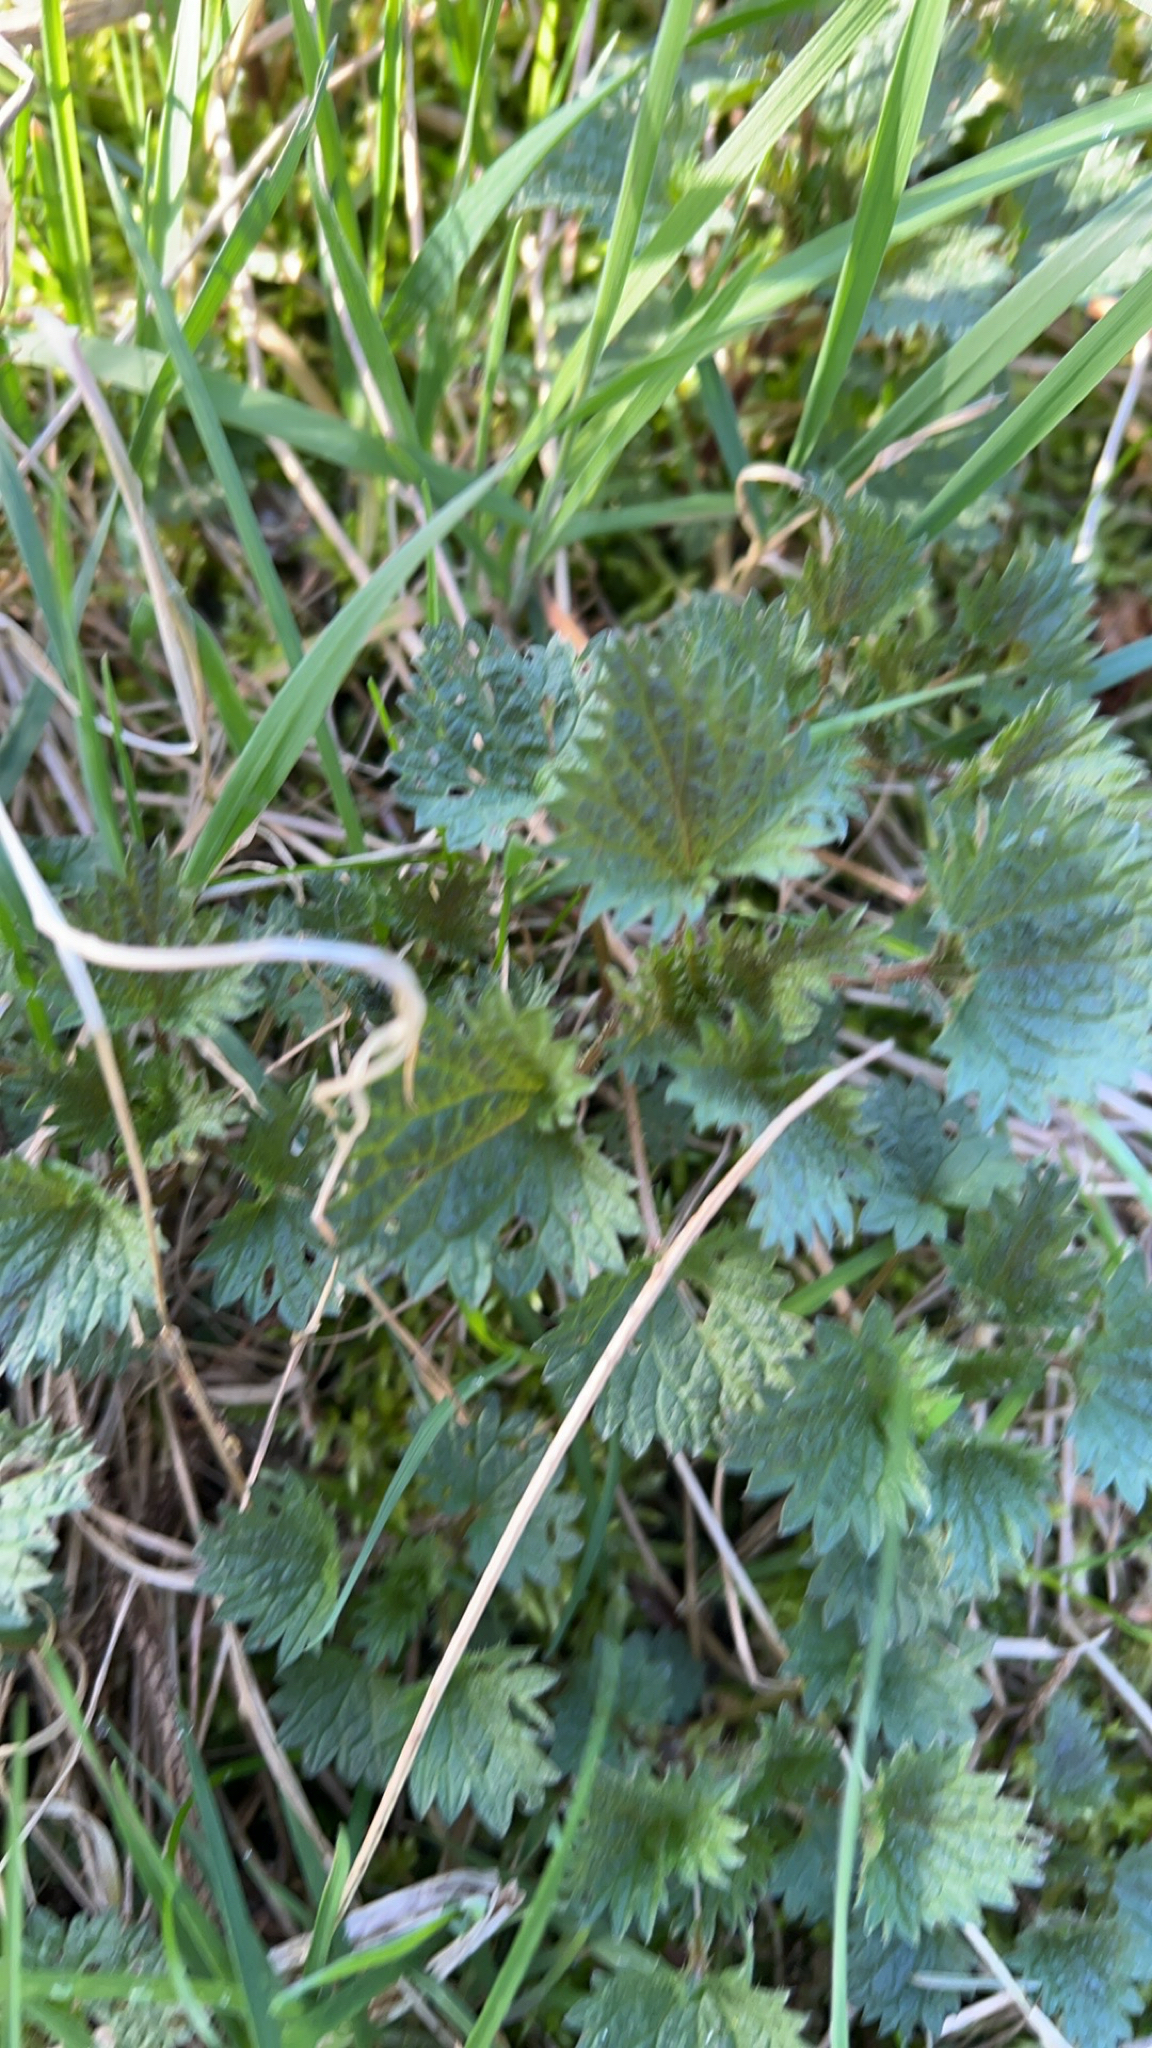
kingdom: Plantae
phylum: Tracheophyta
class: Magnoliopsida
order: Rosales
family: Urticaceae
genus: Urtica
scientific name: Urtica dioica
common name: Common nettle
